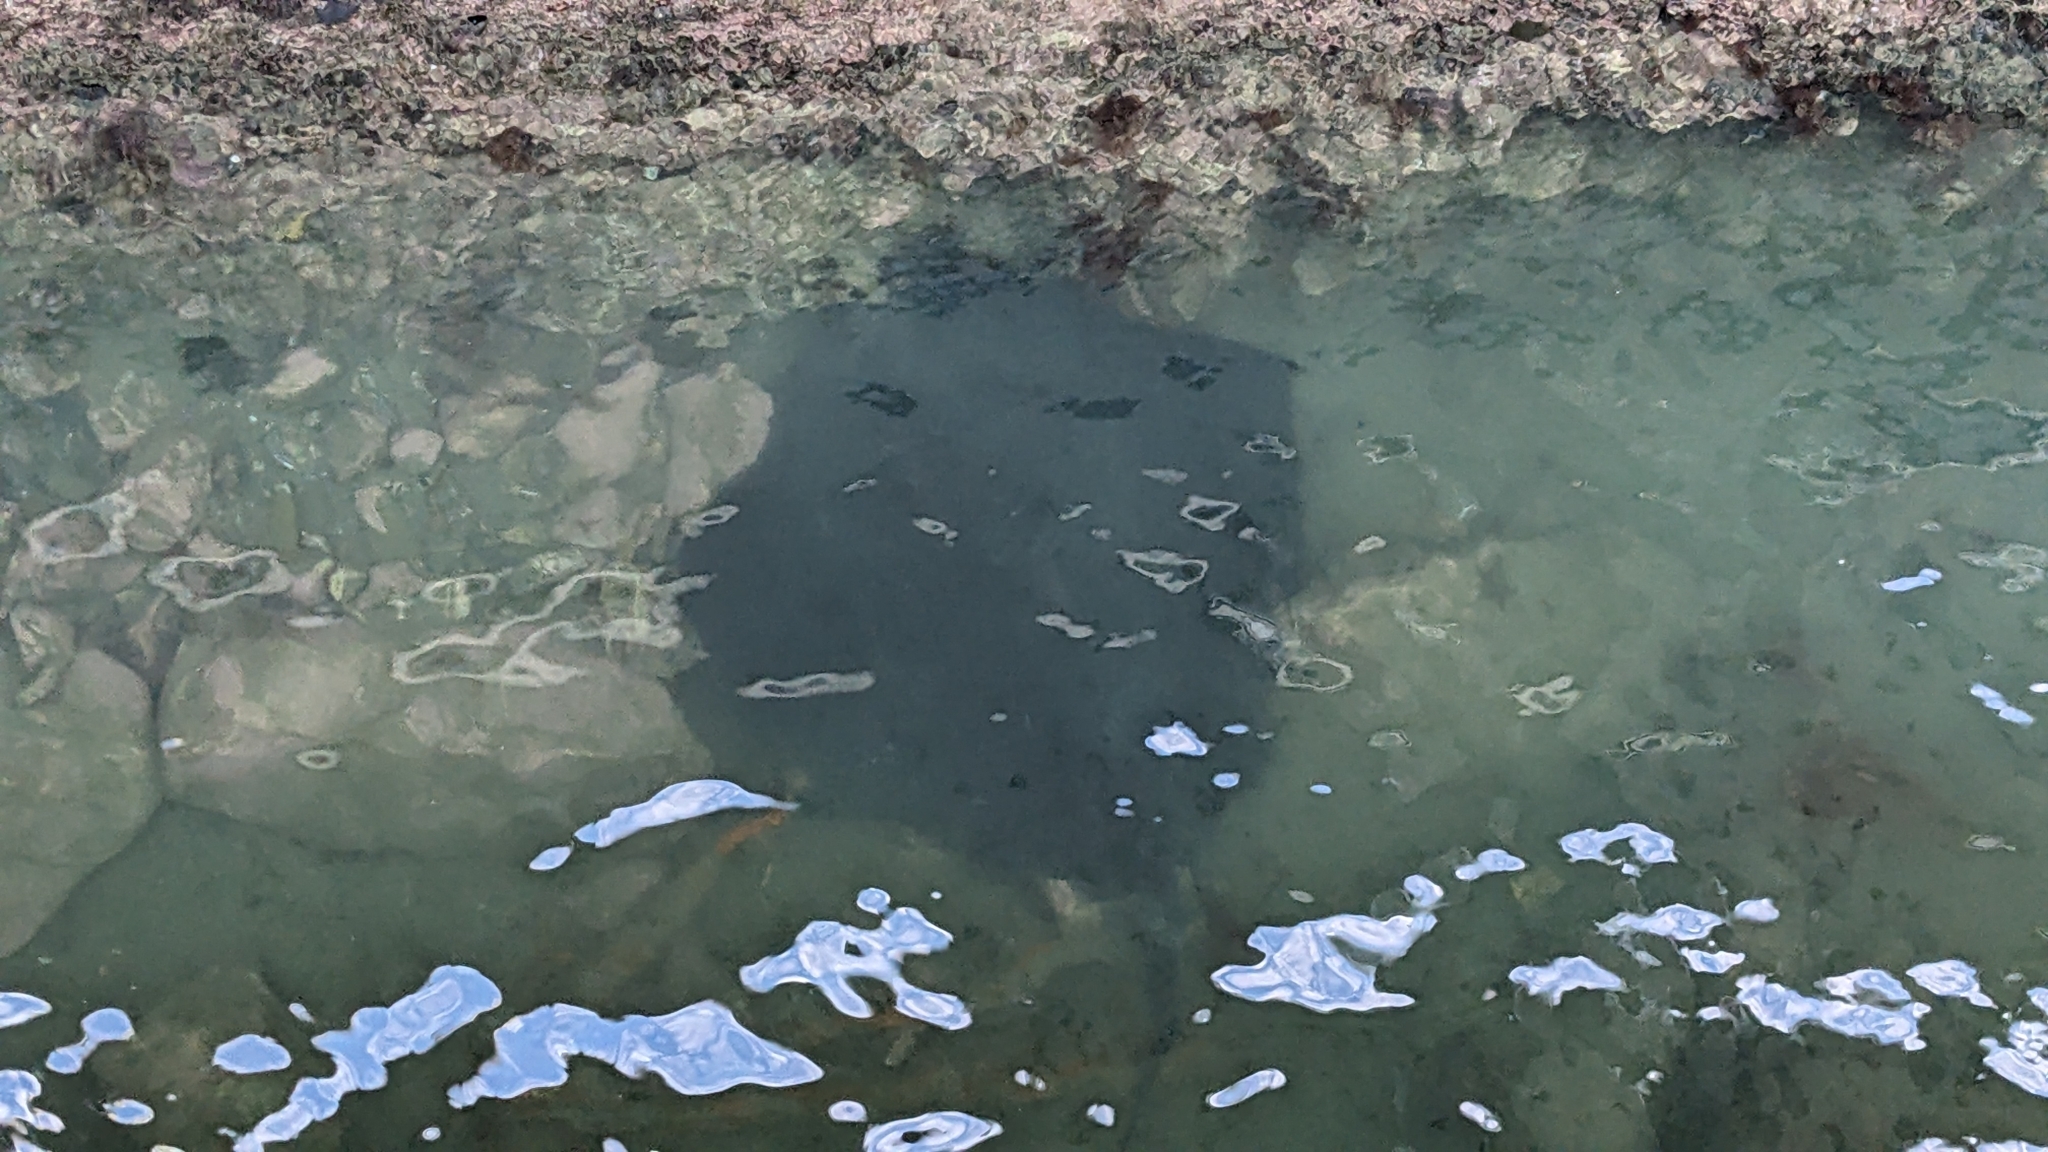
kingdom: Animalia
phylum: Chordata
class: Elasmobranchii
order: Myliobatiformes
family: Dasyatidae
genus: Bathytoshia
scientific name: Bathytoshia brevicaudata
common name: Short-tail stingray
